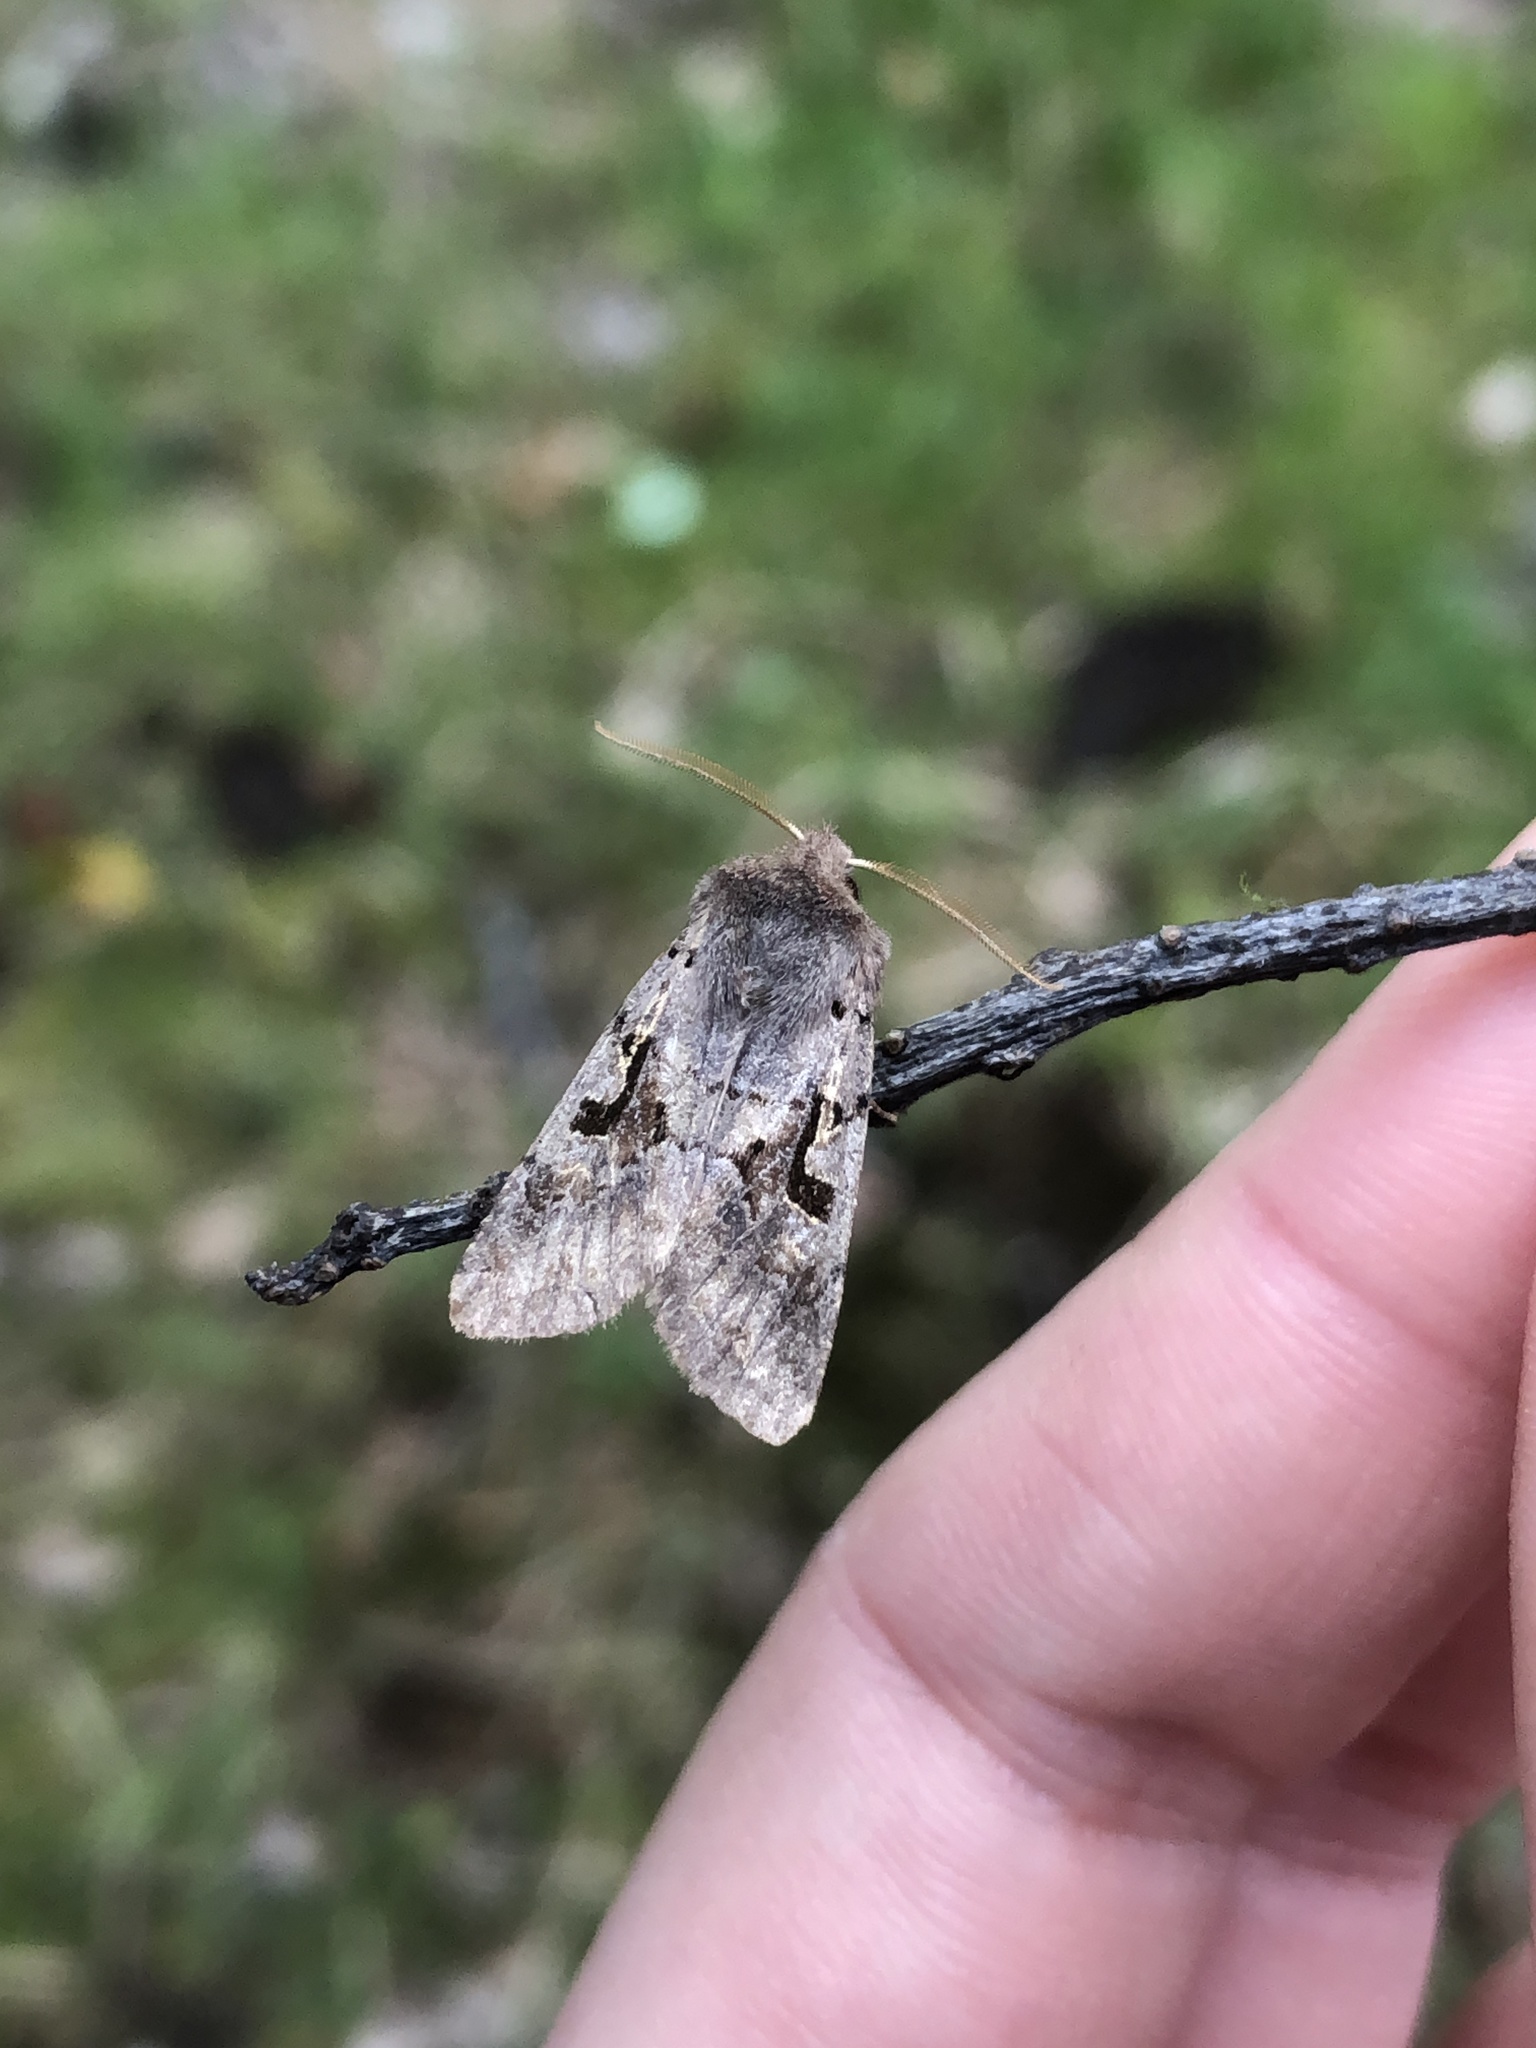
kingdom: Animalia
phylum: Arthropoda
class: Insecta
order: Lepidoptera
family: Noctuidae
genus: Orthosia
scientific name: Orthosia gothica
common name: Hebrew character
